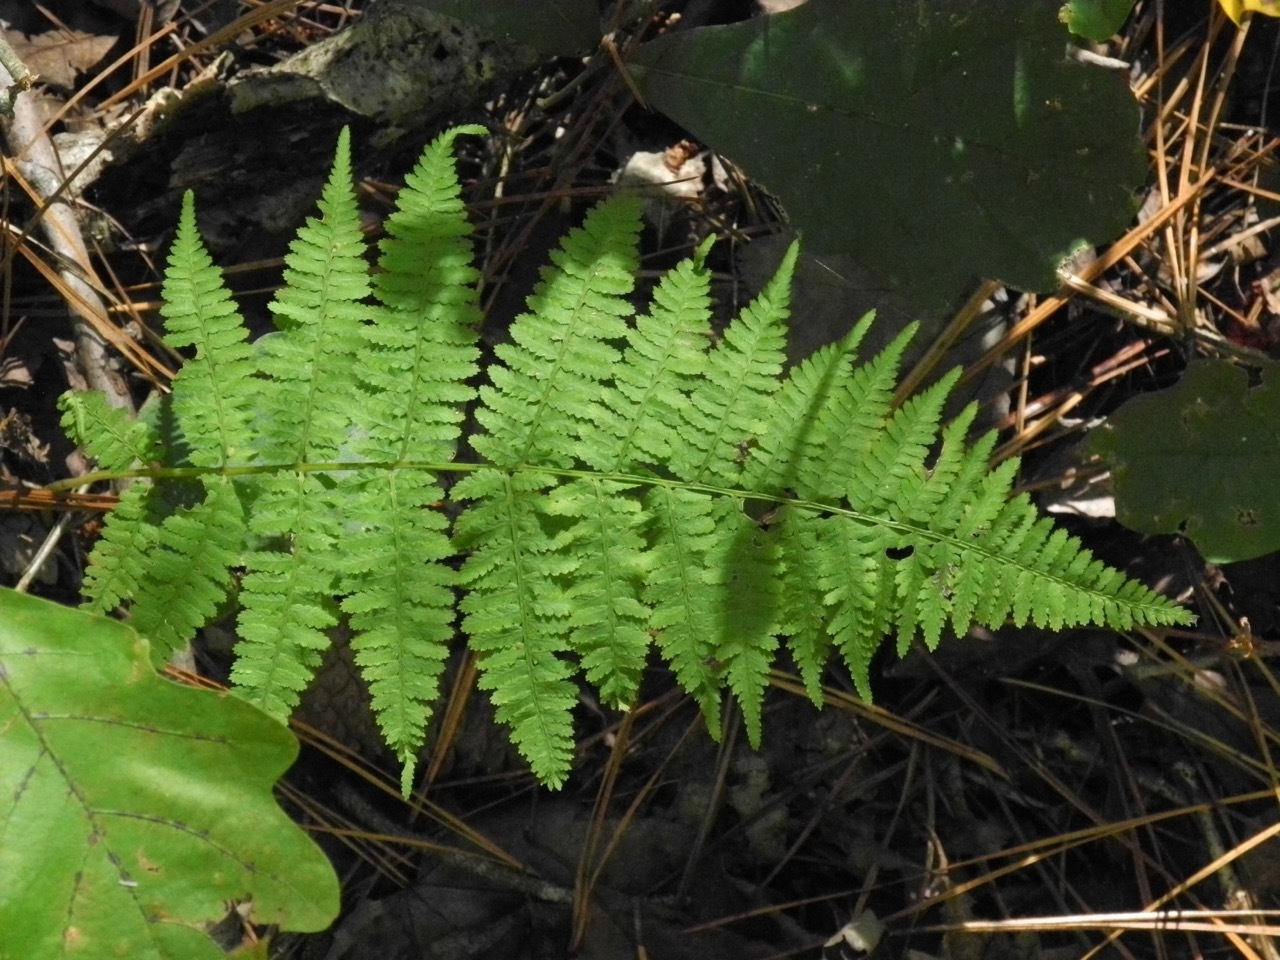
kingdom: Plantae
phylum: Tracheophyta
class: Polypodiopsida
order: Polypodiales
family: Athyriaceae
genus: Athyrium
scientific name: Athyrium asplenioides
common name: Southern lady fern
